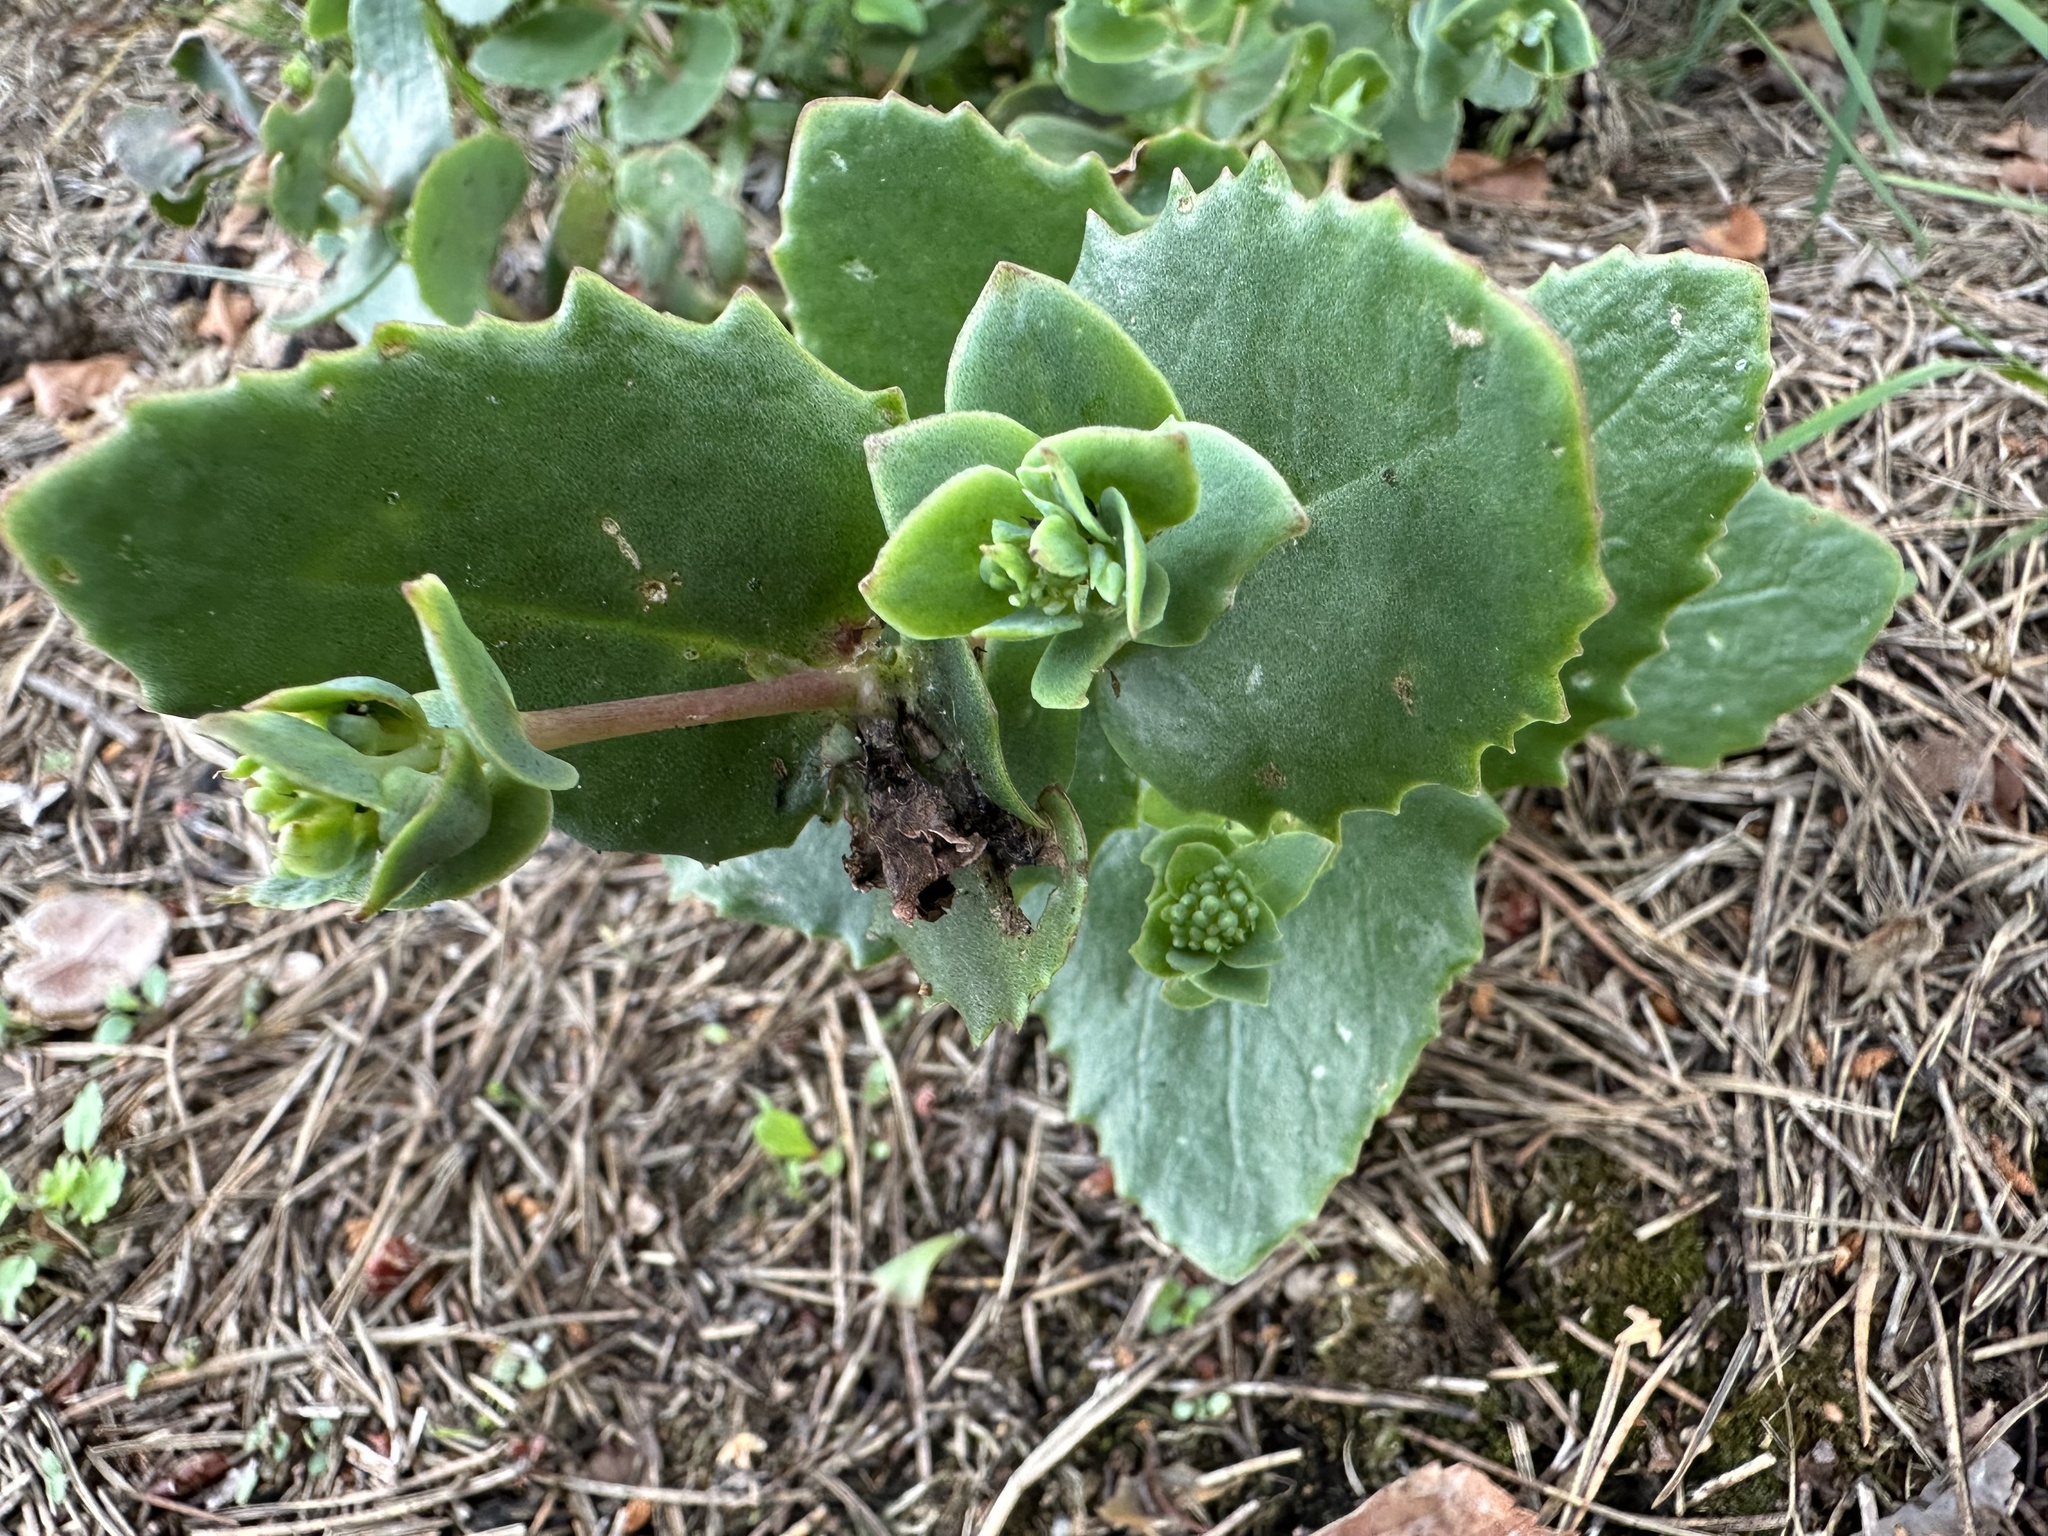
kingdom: Plantae
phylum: Tracheophyta
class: Magnoliopsida
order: Saxifragales
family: Crassulaceae
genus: Hylotelephium
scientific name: Hylotelephium maximum
